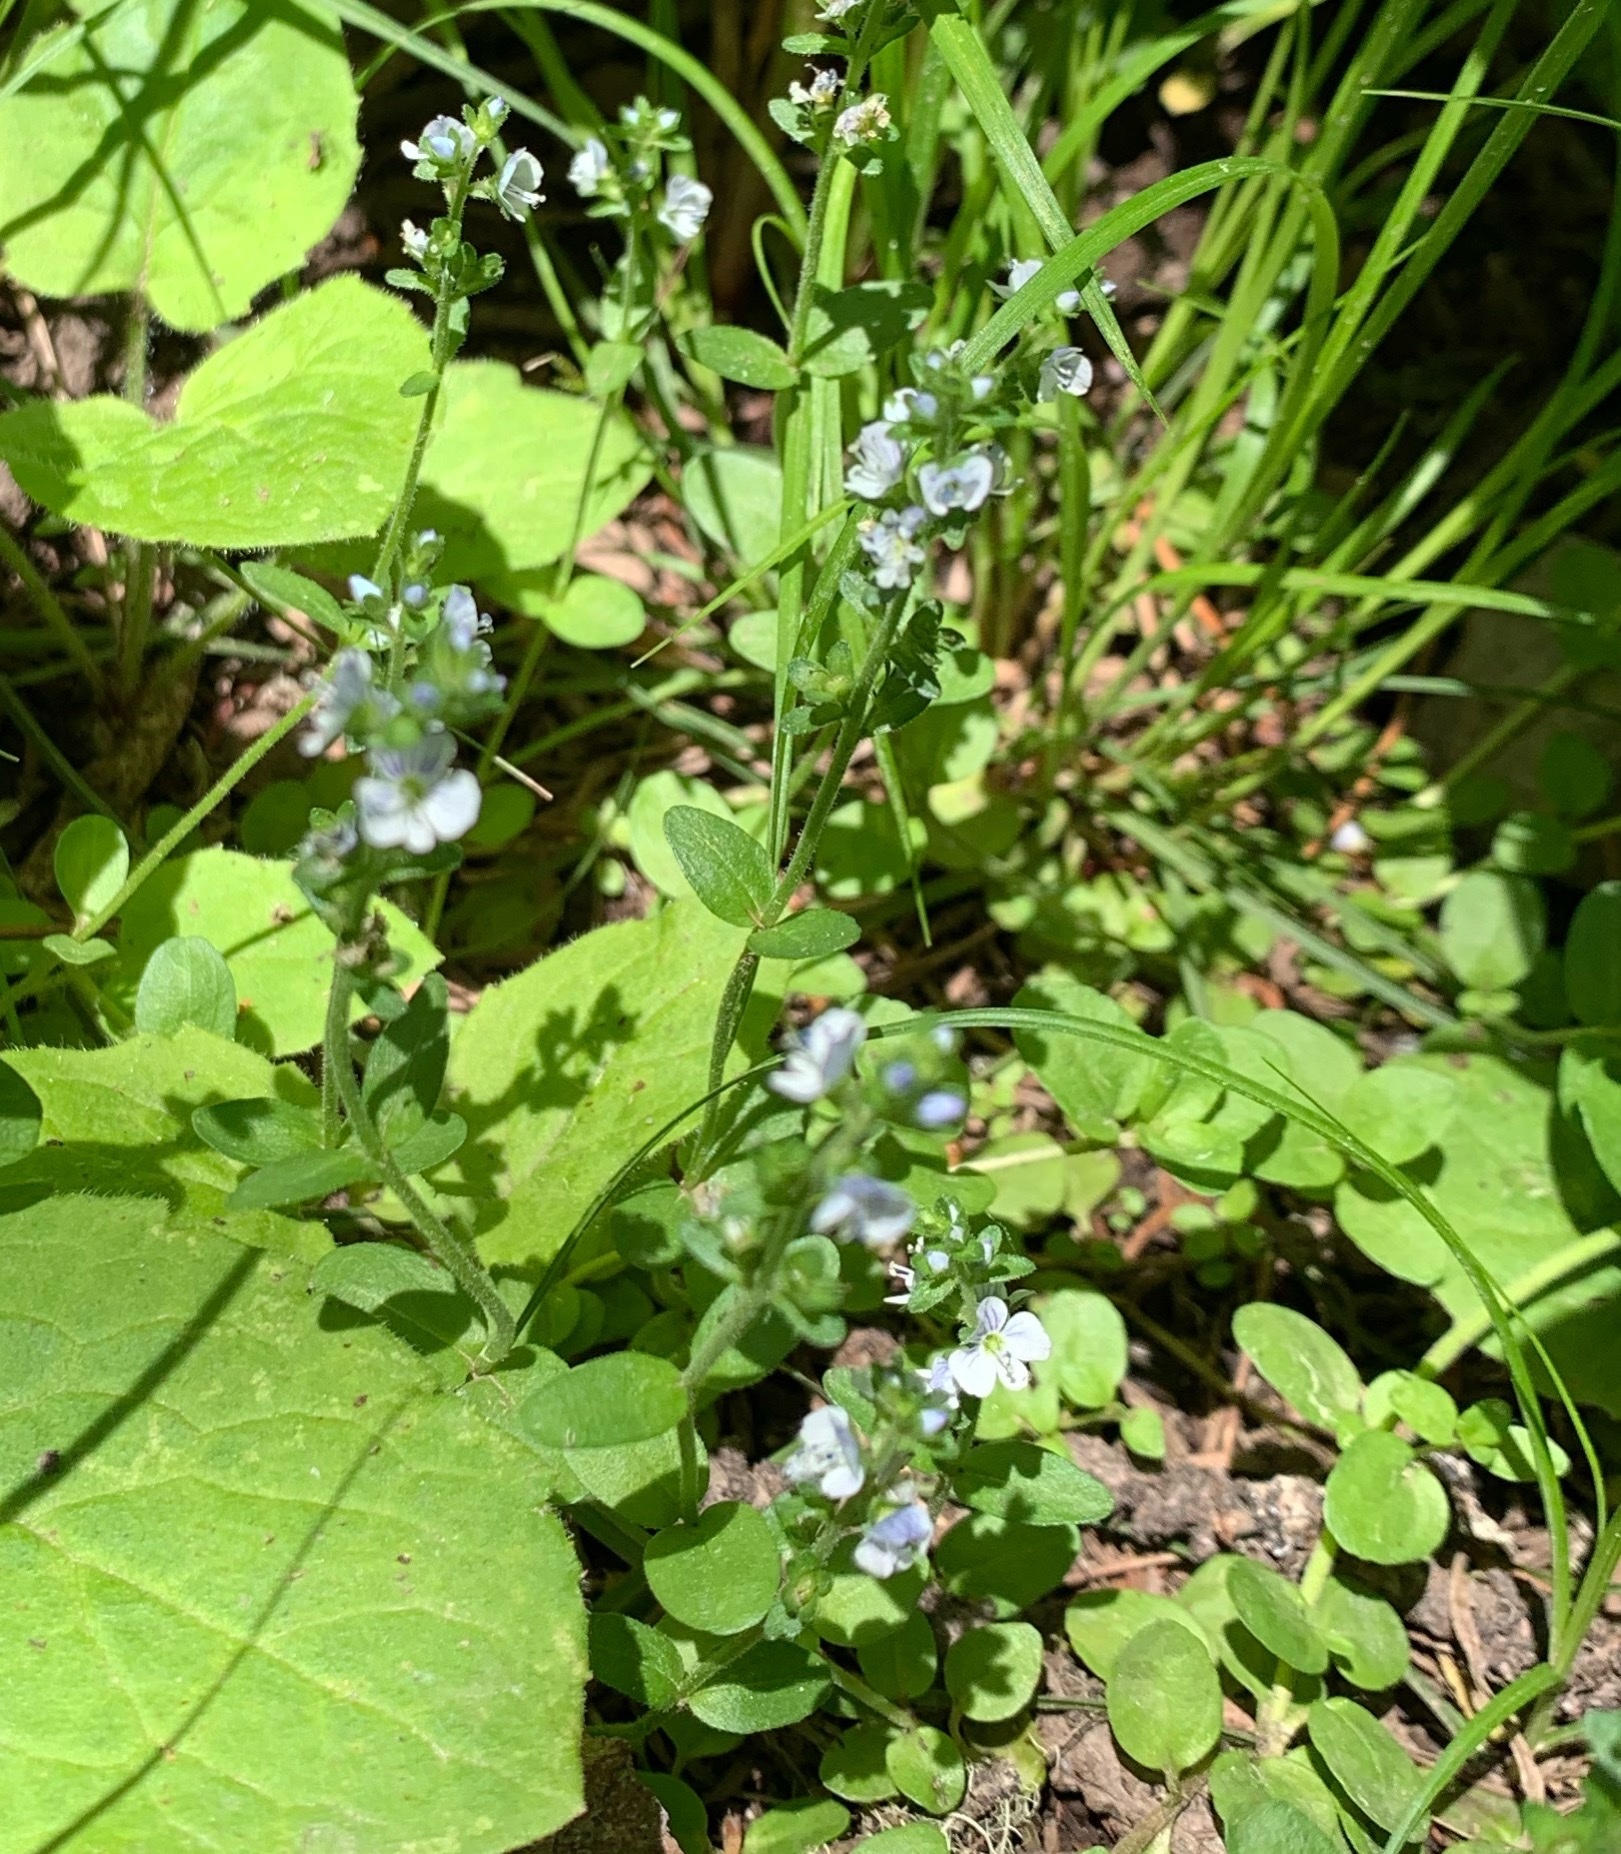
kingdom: Plantae
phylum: Tracheophyta
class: Magnoliopsida
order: Lamiales
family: Plantaginaceae
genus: Veronica
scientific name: Veronica serpyllifolia
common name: Thyme-leaved speedwell
